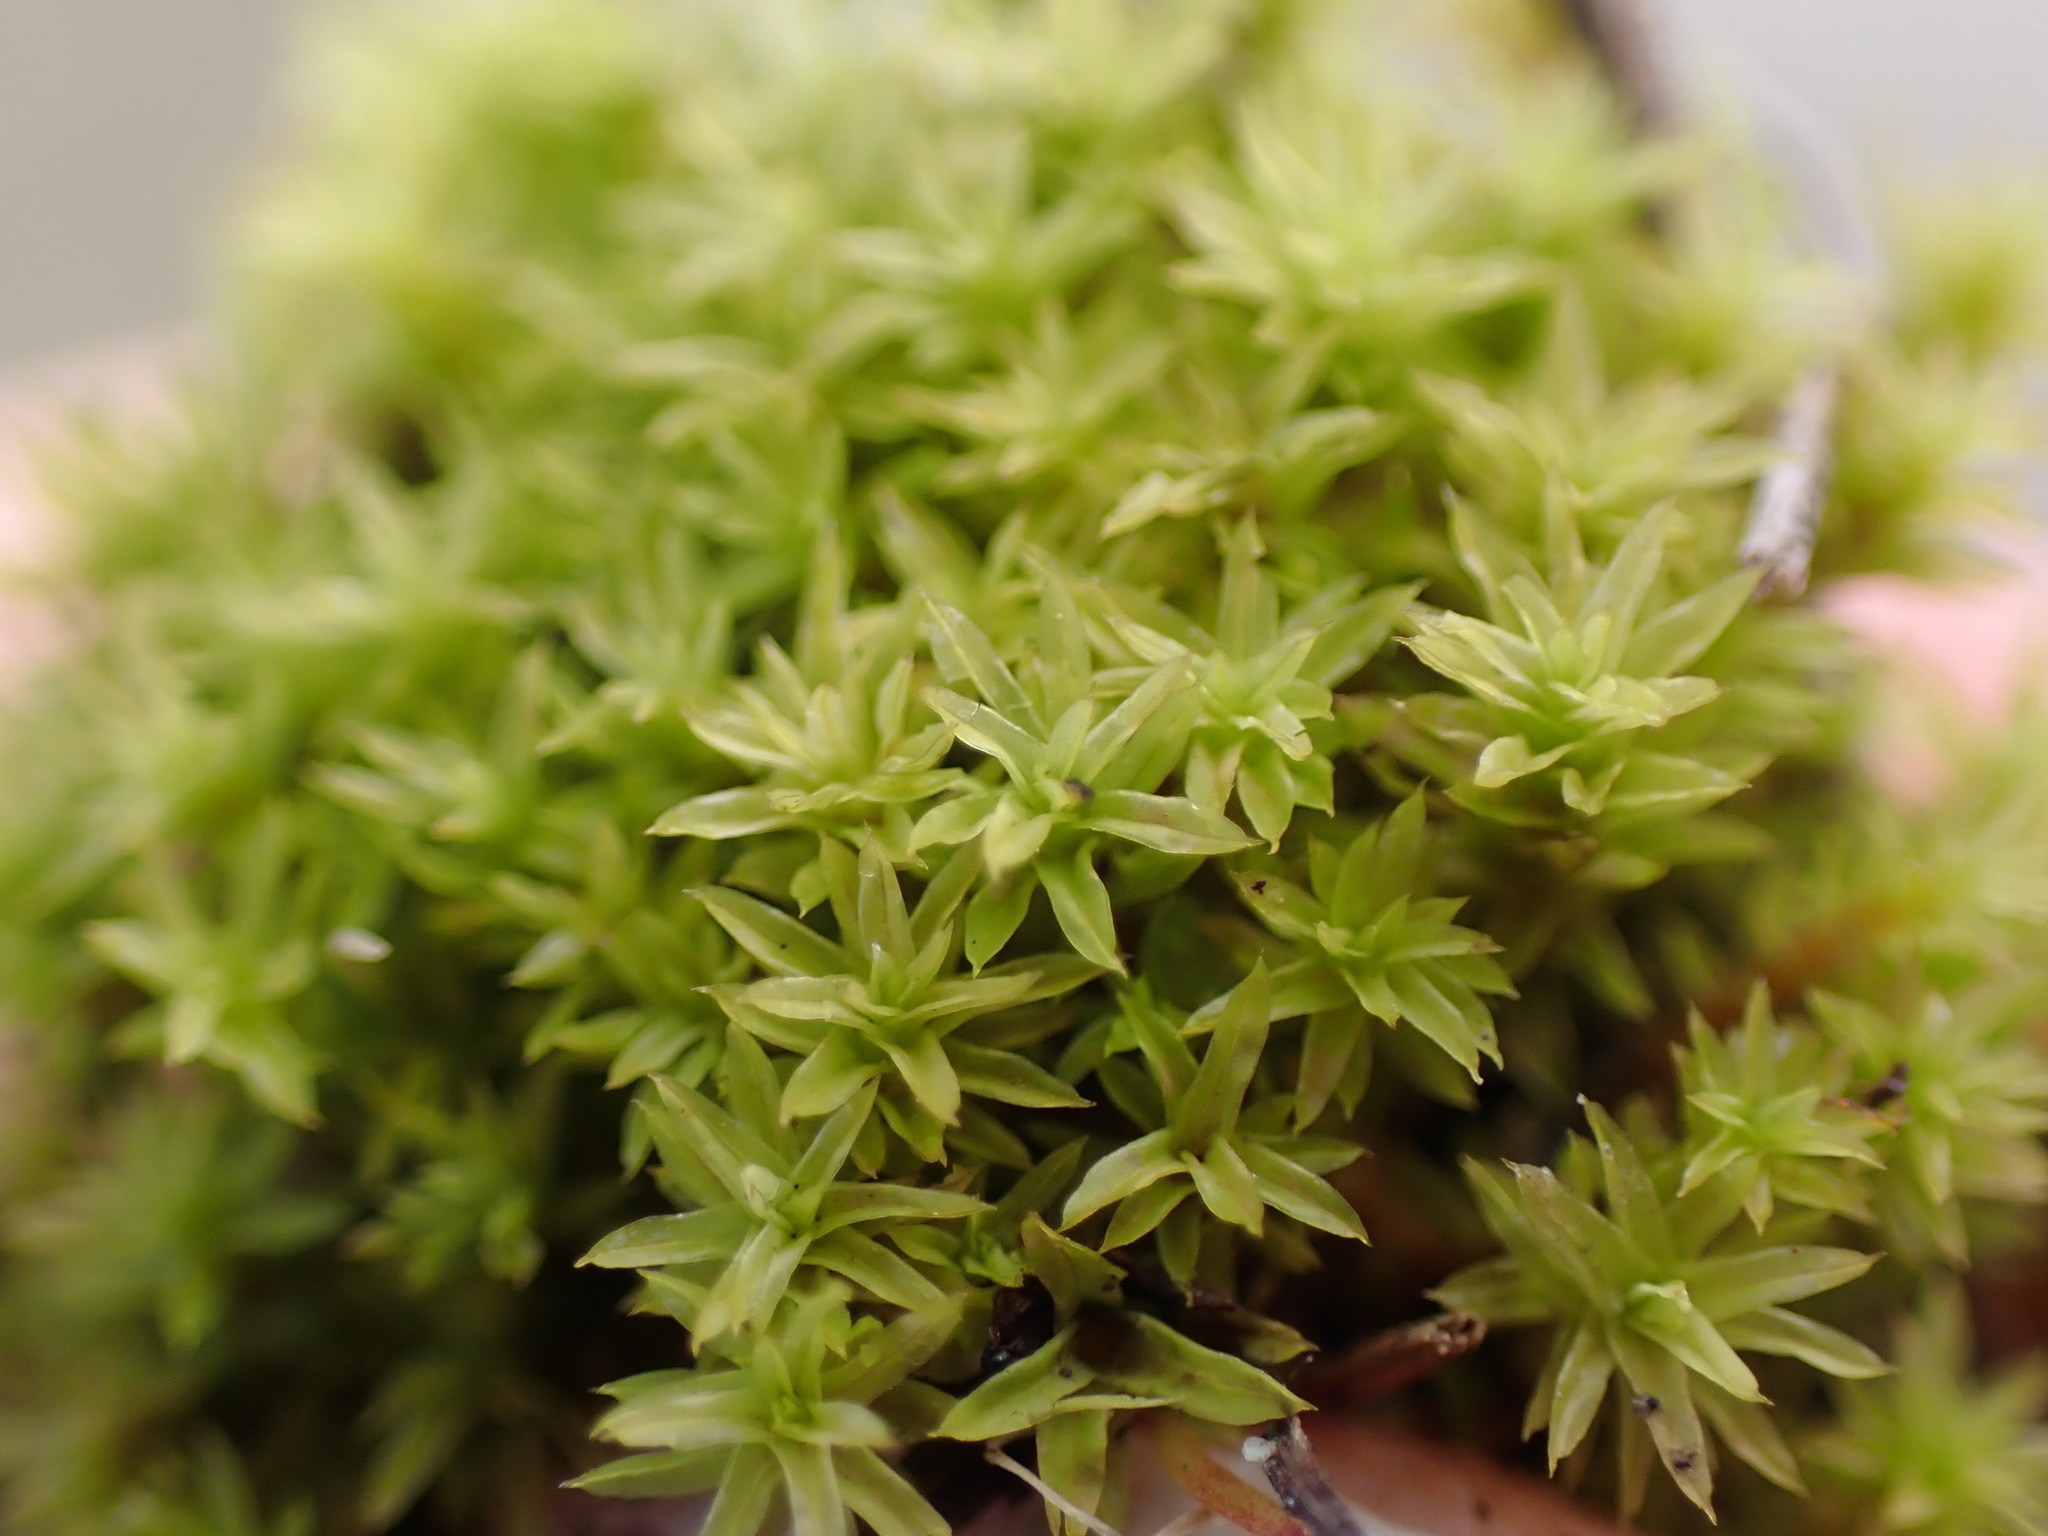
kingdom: Plantae
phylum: Bryophyta
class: Bryopsida
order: Pottiales
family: Pottiaceae
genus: Barbula
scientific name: Barbula unguiculata
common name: Prickly beard moss
